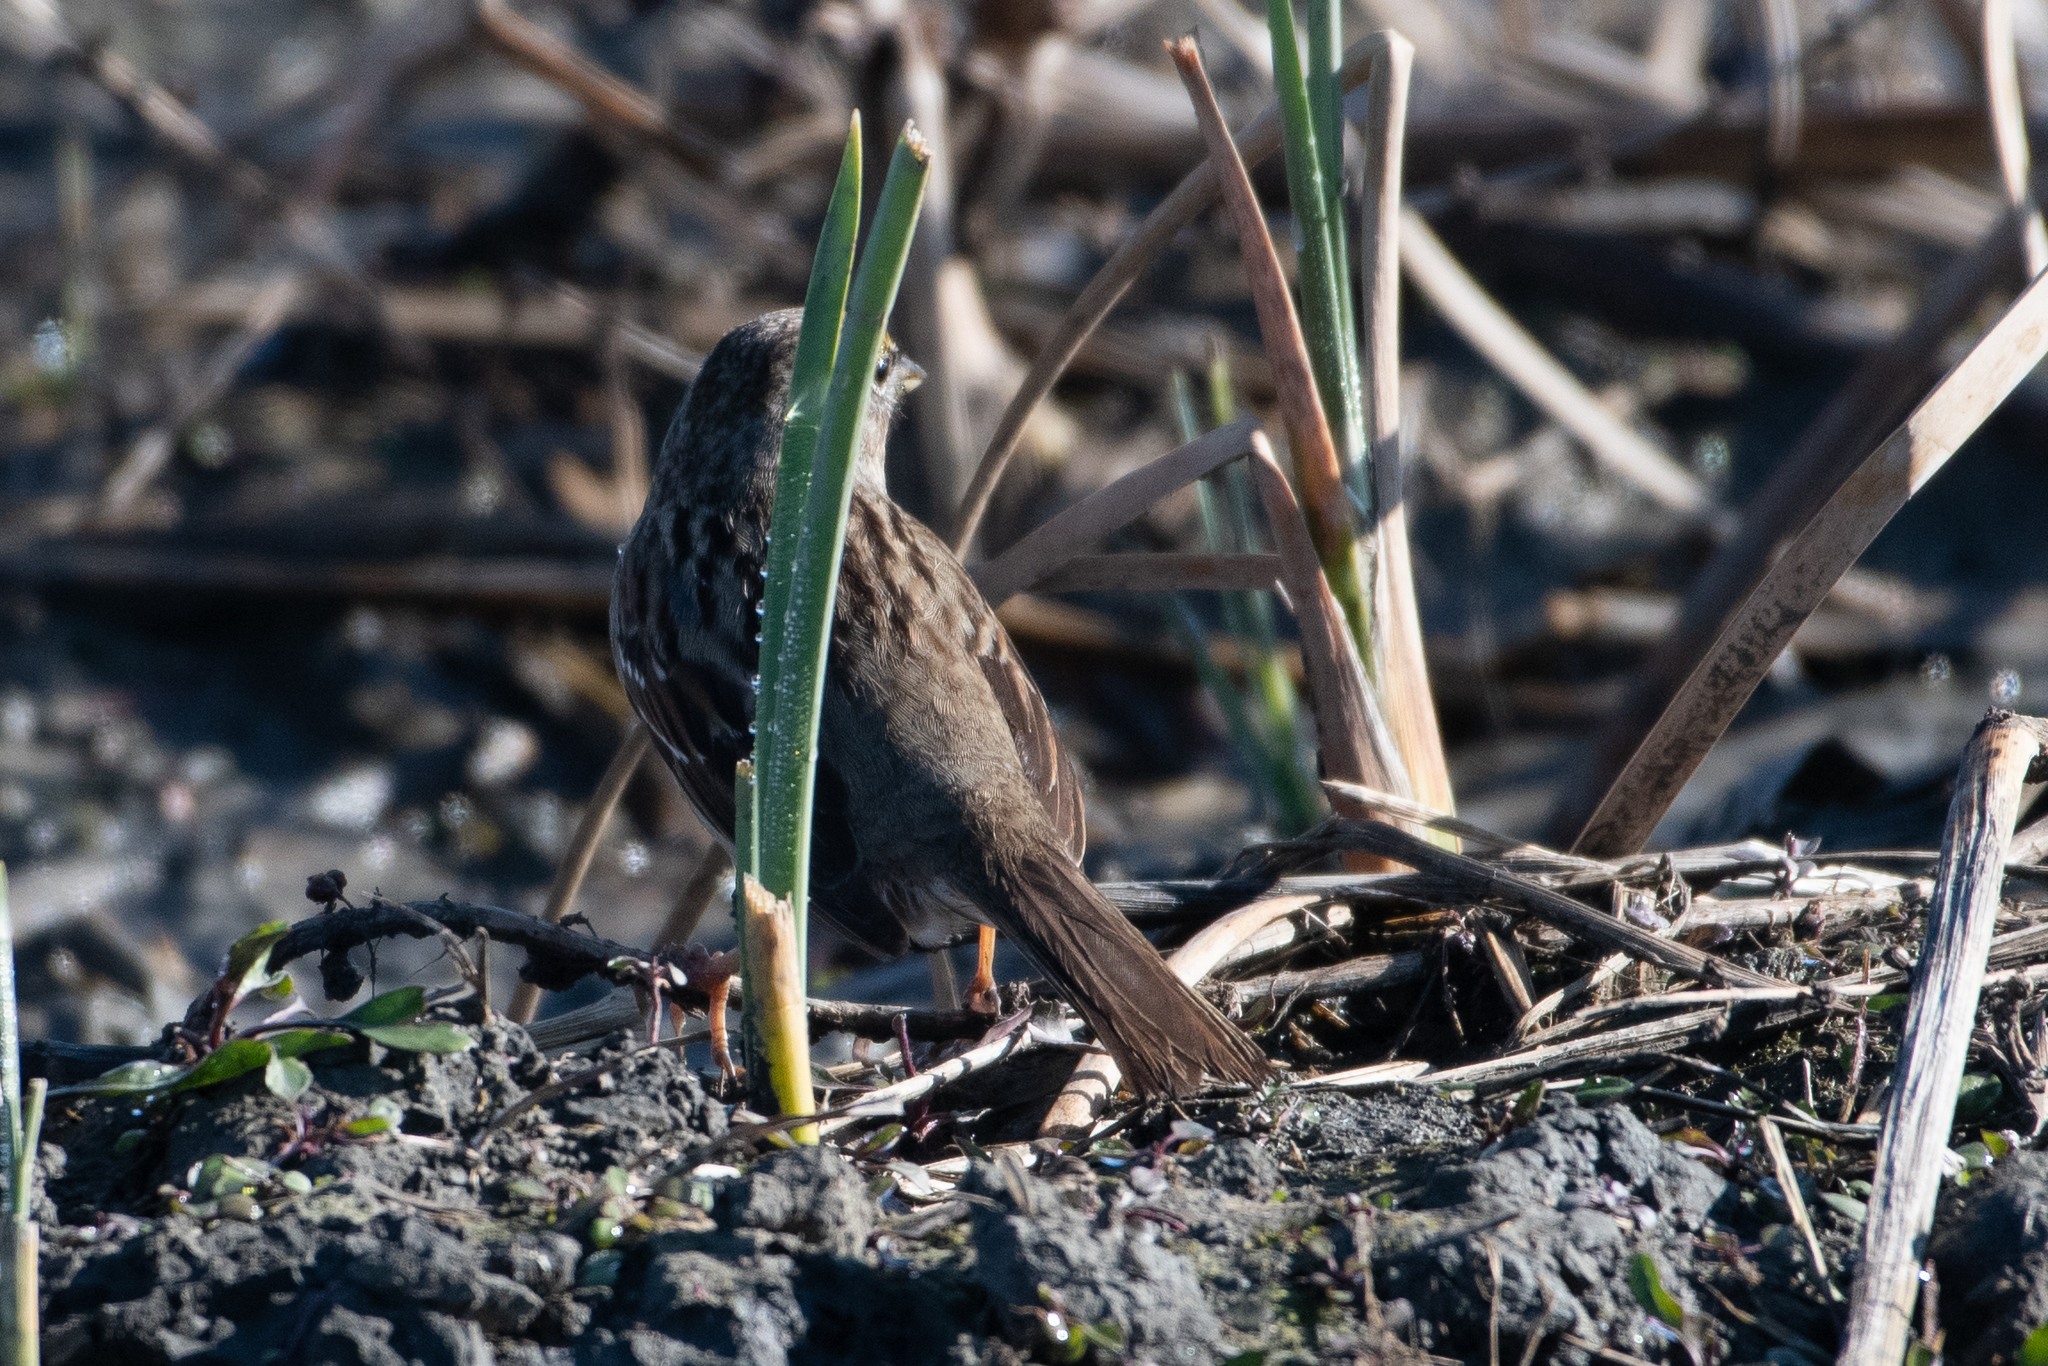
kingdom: Animalia
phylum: Chordata
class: Aves
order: Passeriformes
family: Passerellidae
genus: Zonotrichia
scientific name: Zonotrichia atricapilla
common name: Golden-crowned sparrow
